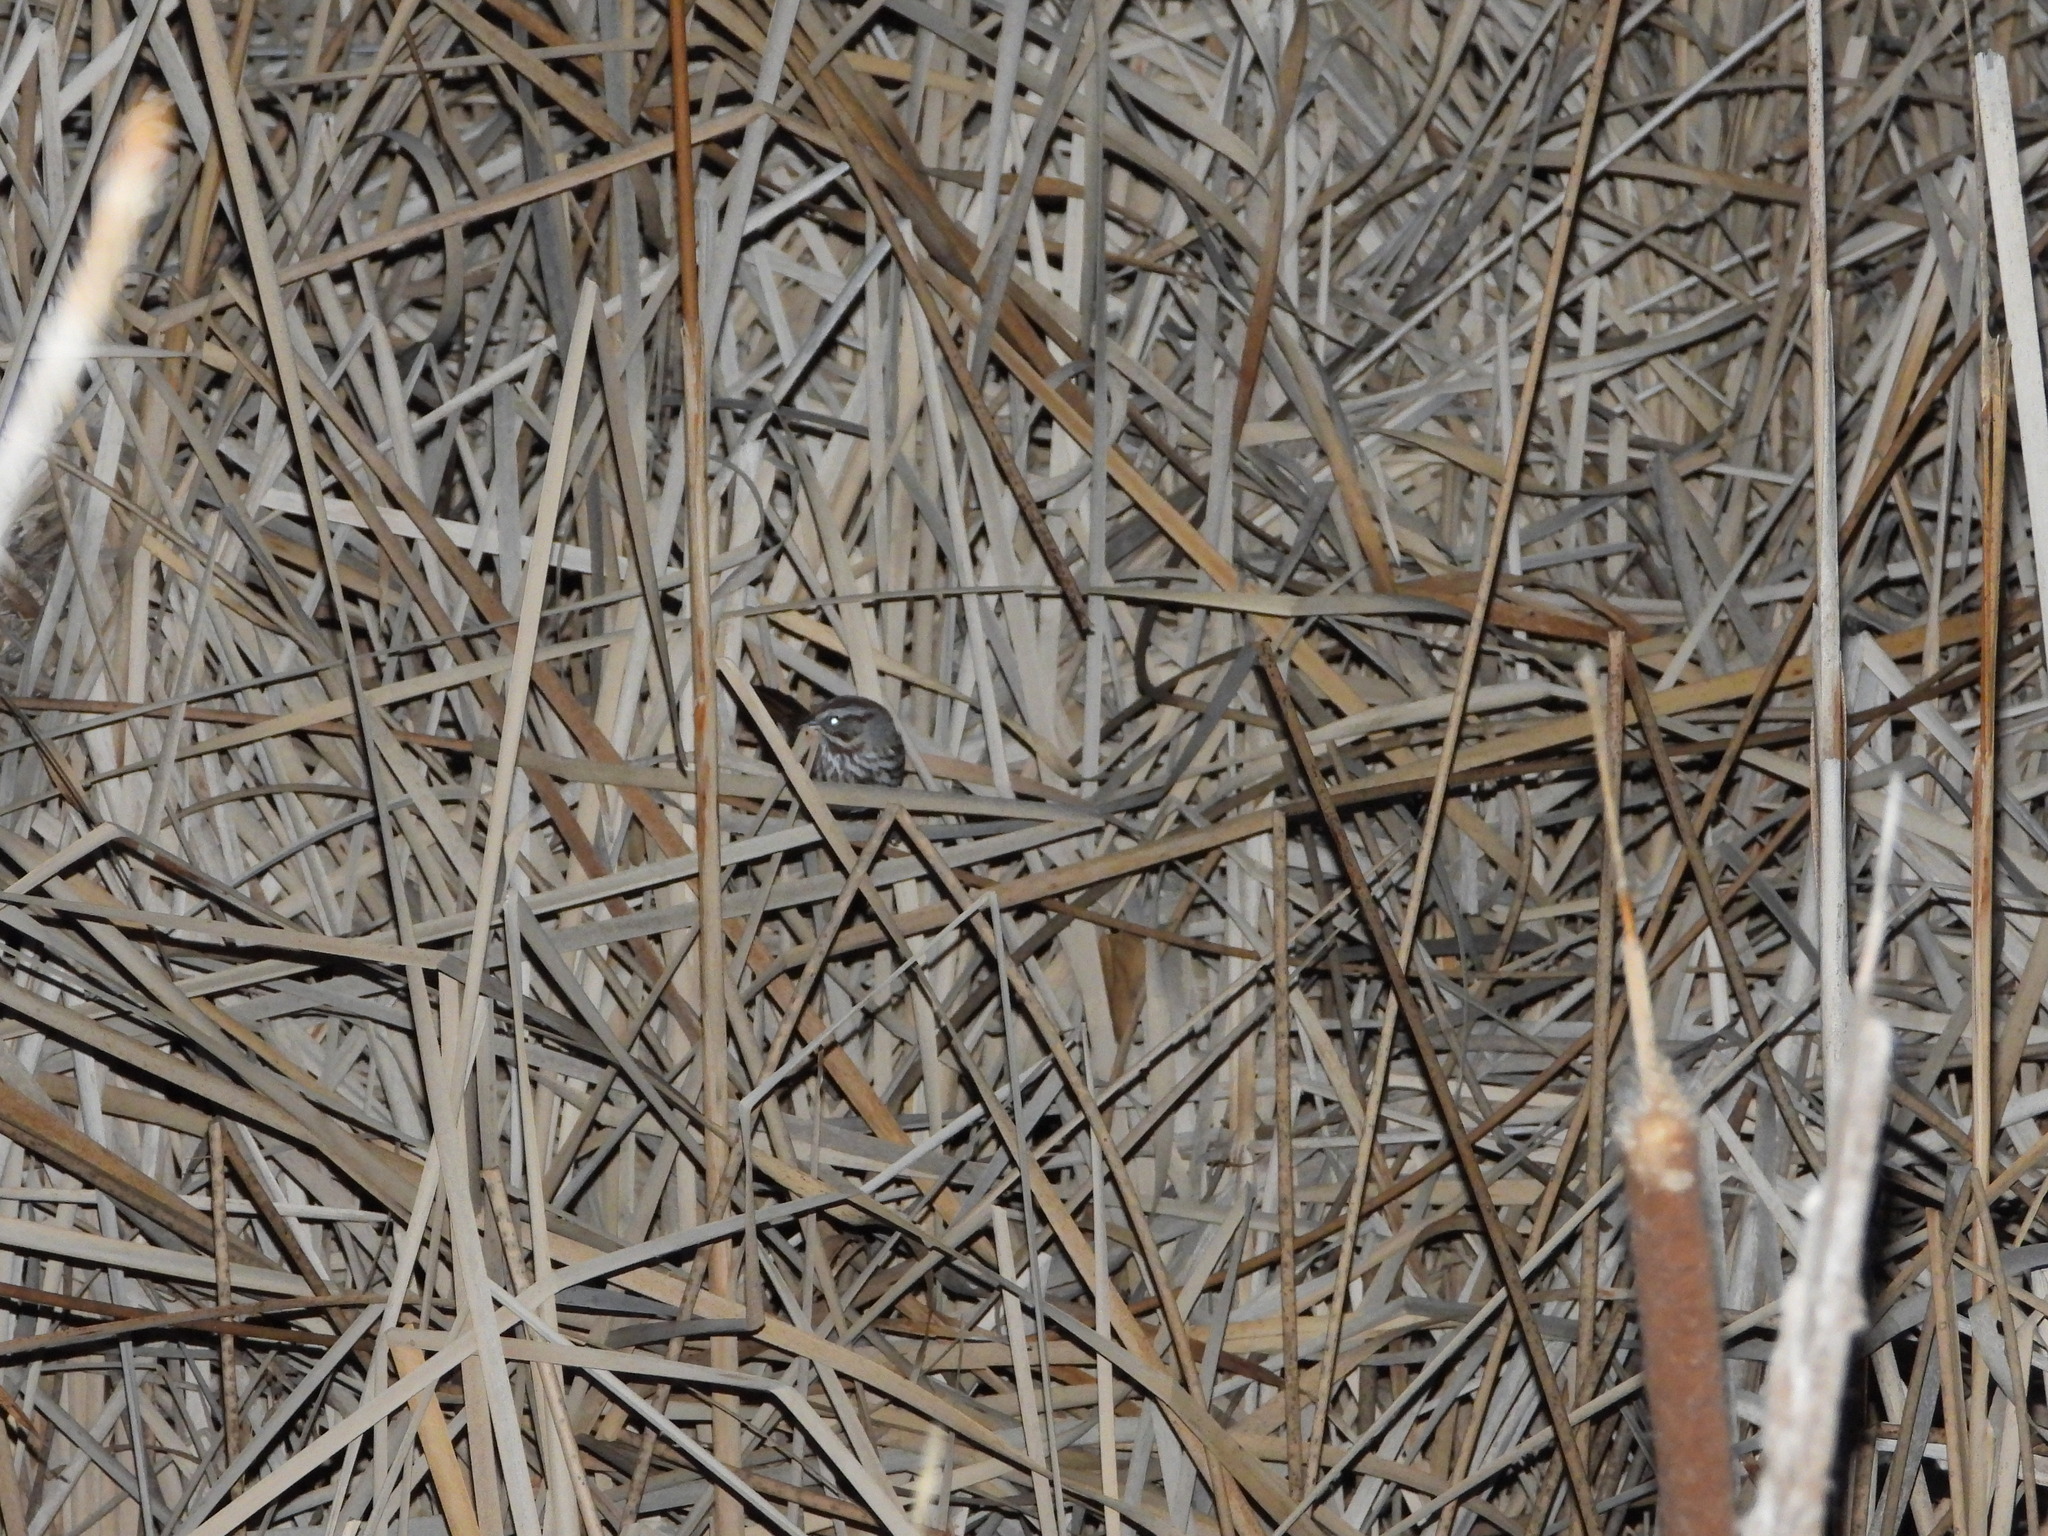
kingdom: Animalia
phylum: Chordata
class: Aves
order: Passeriformes
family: Passerellidae
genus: Melospiza
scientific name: Melospiza melodia
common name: Song sparrow
